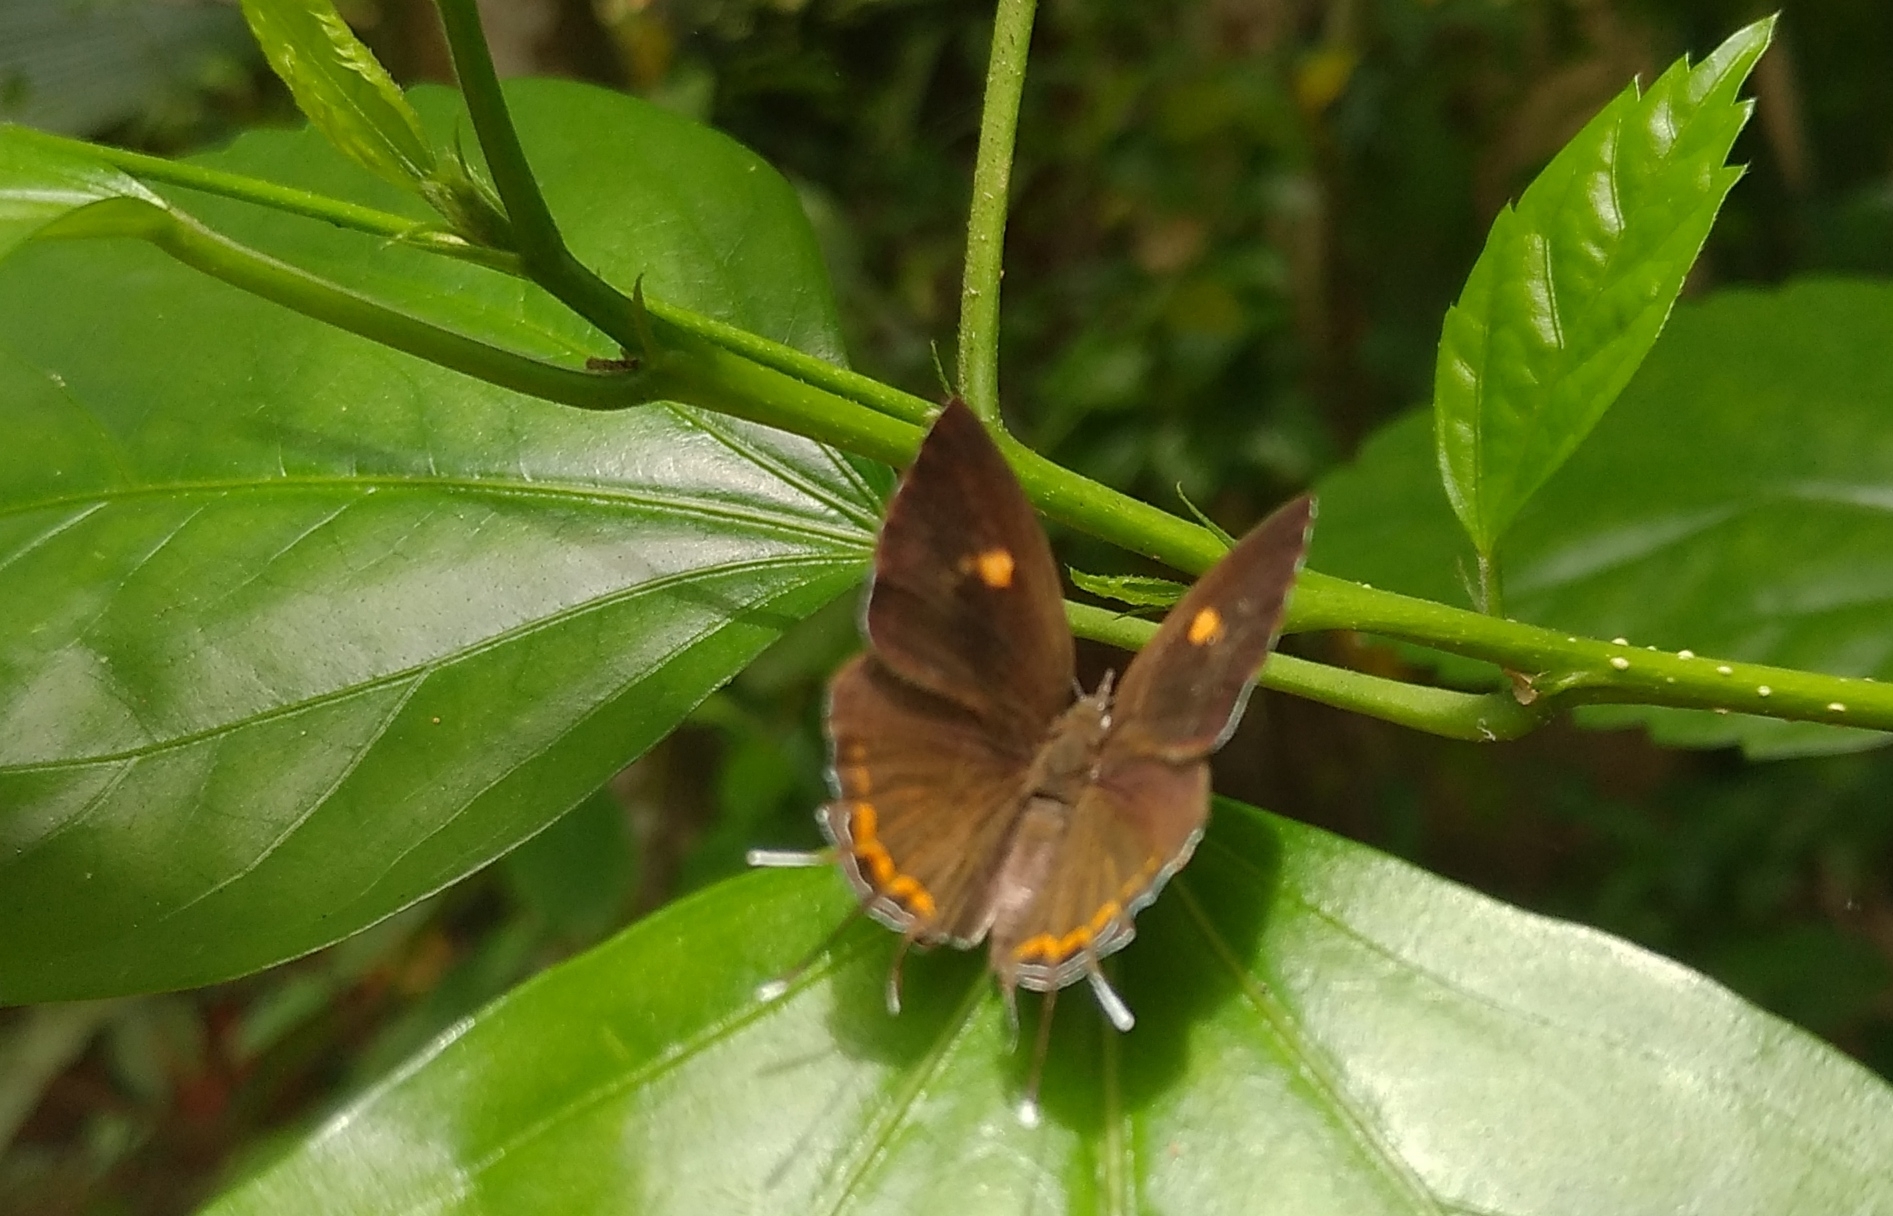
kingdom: Animalia
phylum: Arthropoda
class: Insecta
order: Lepidoptera
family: Lycaenidae
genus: Rathinda
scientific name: Rathinda amor
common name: Monkey puzzle
